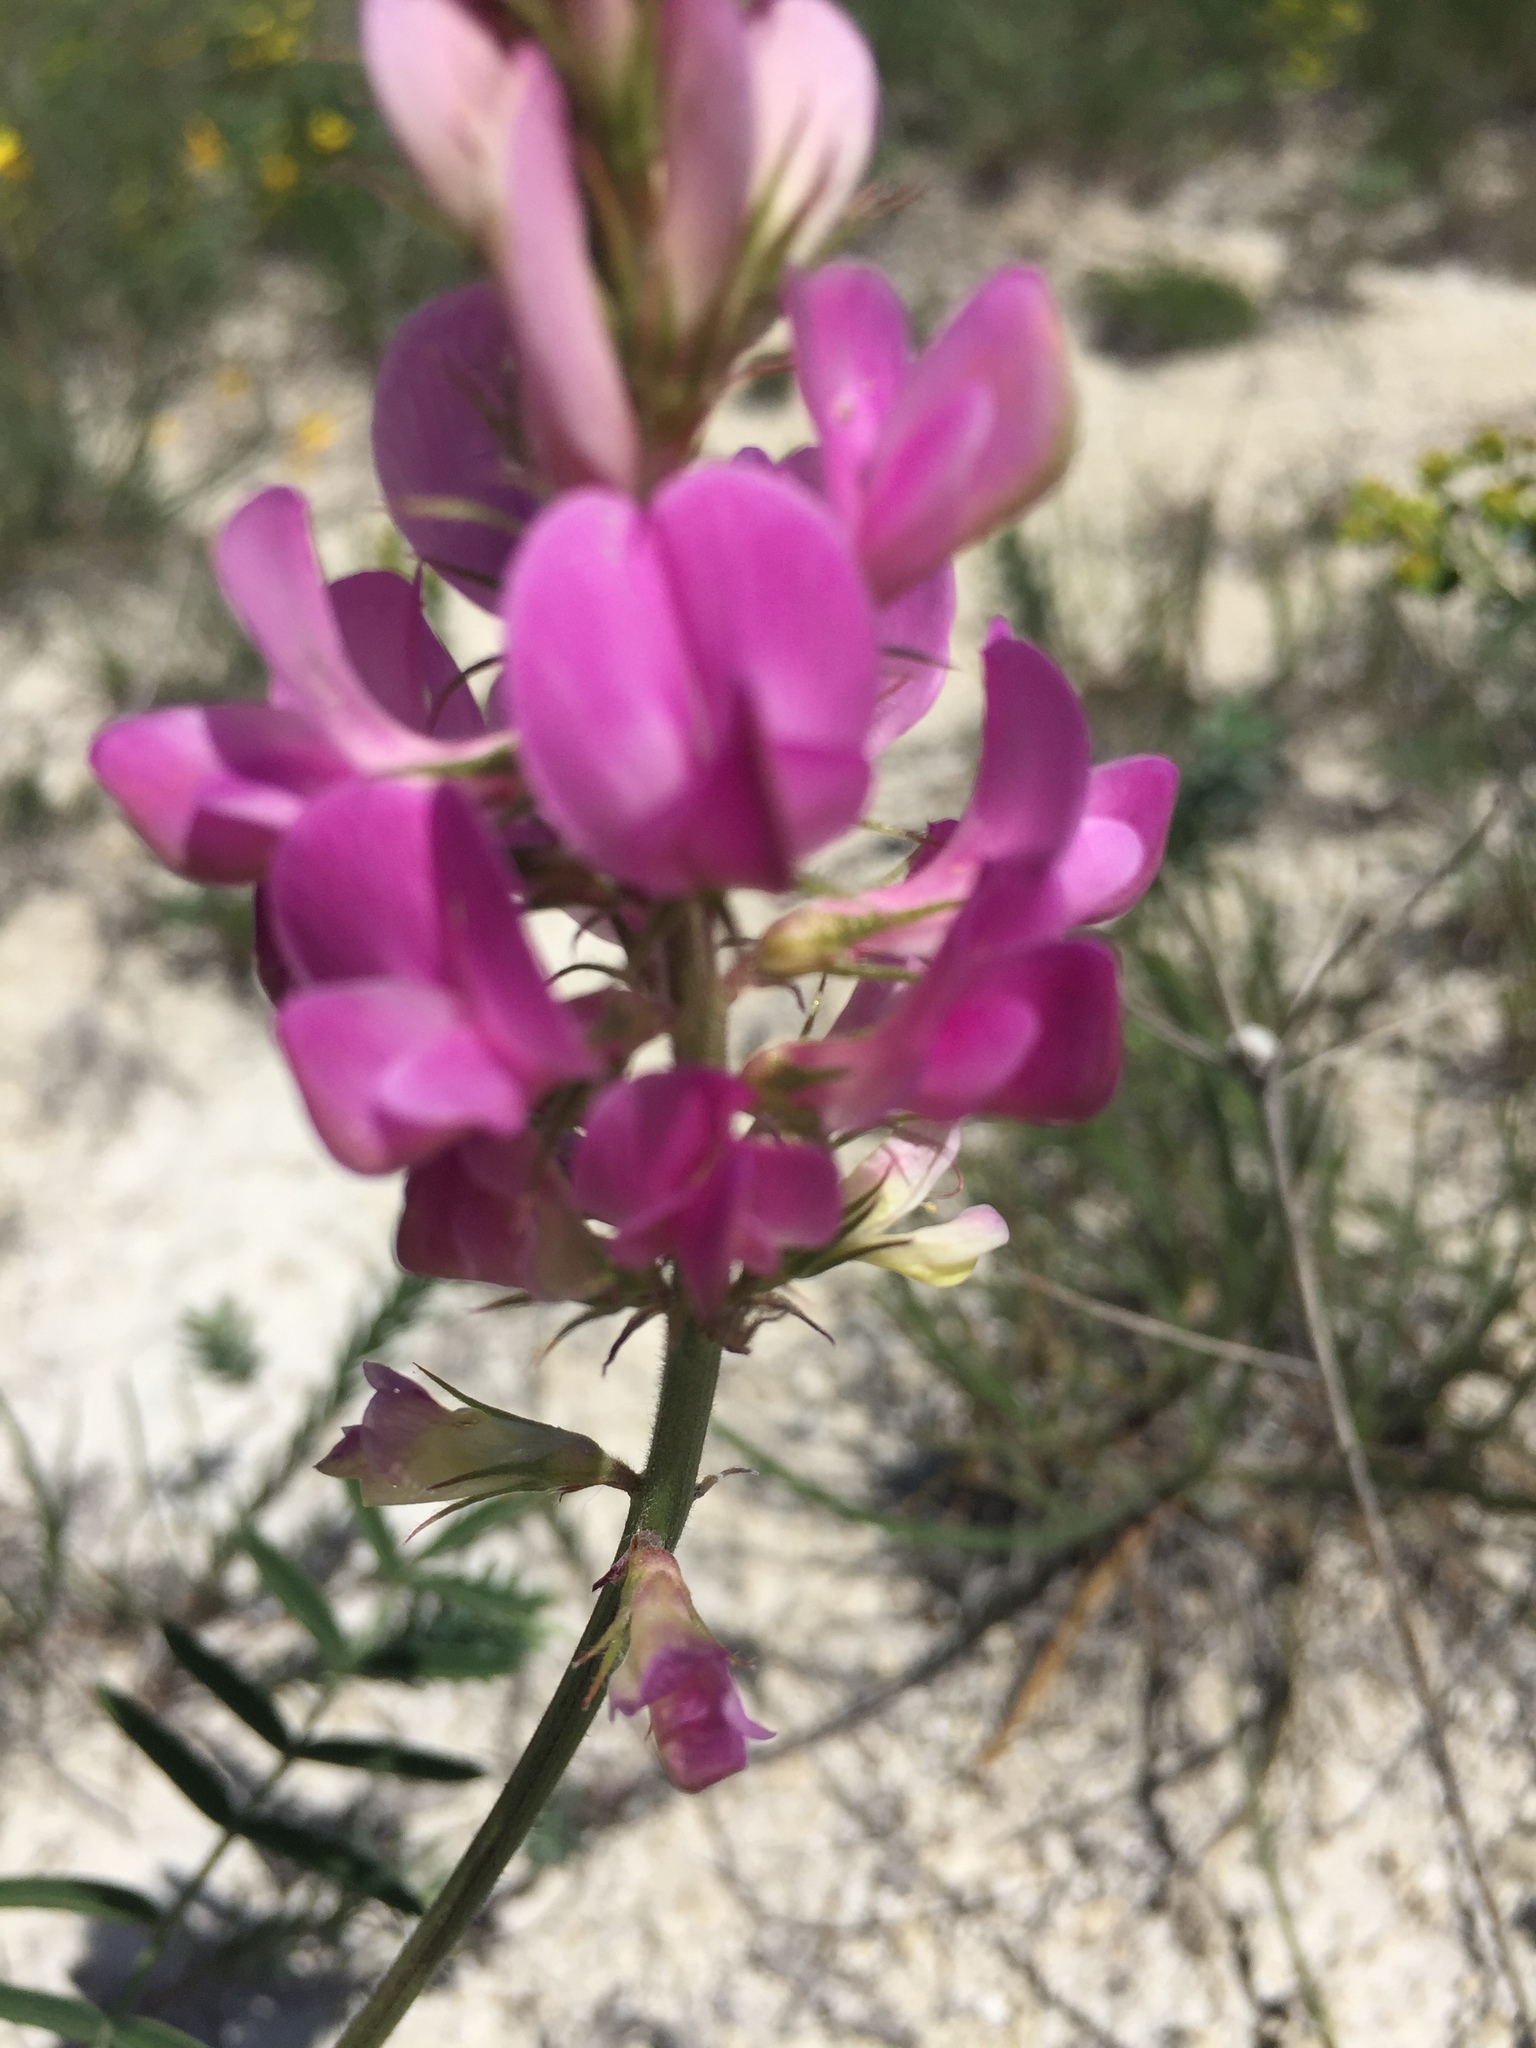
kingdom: Plantae
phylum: Tracheophyta
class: Magnoliopsida
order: Fabales
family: Fabaceae
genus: Hedysarum
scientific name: Hedysarum ucrainicum
